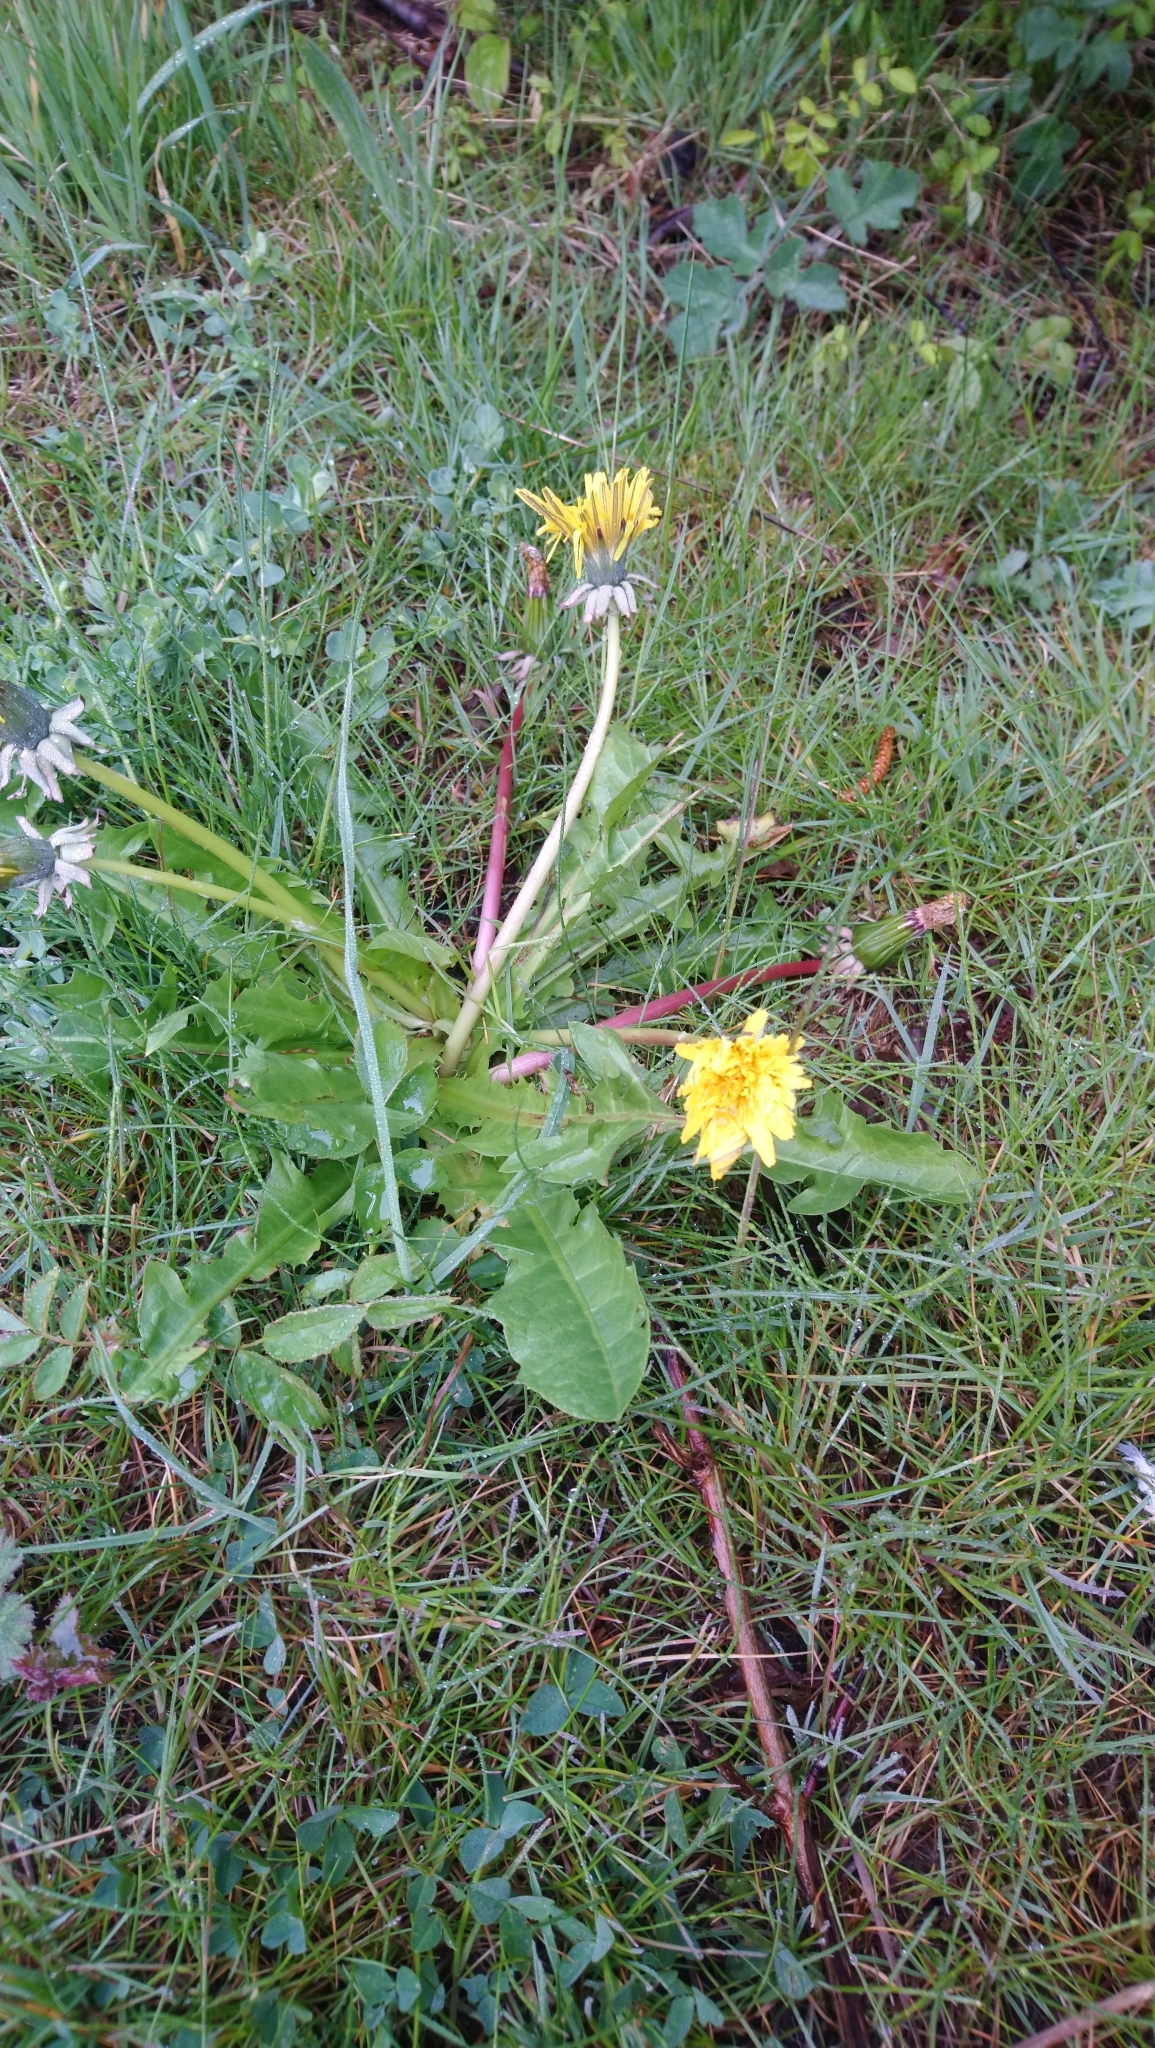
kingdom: Plantae
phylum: Tracheophyta
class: Magnoliopsida
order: Asterales
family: Asteraceae
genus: Taraxacum
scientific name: Taraxacum officinale
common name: Common dandelion
